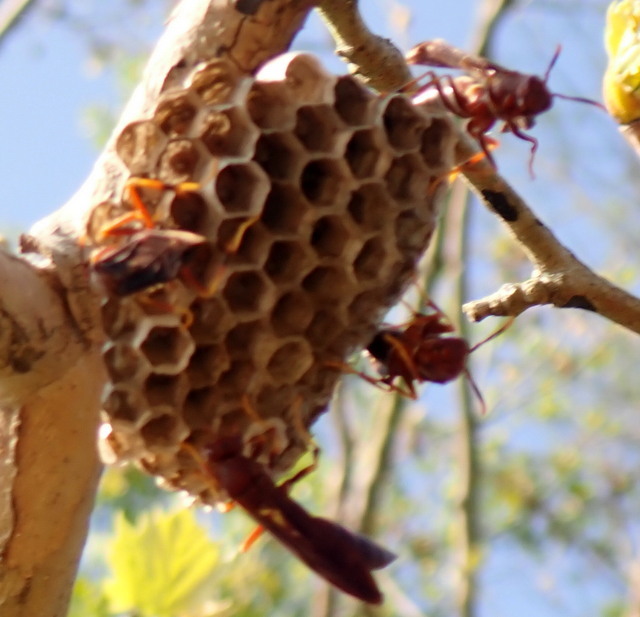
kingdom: Animalia
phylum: Arthropoda
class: Insecta
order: Hymenoptera
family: Eumenidae
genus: Polistes
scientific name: Polistes annularis
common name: Ringed paper wasp
